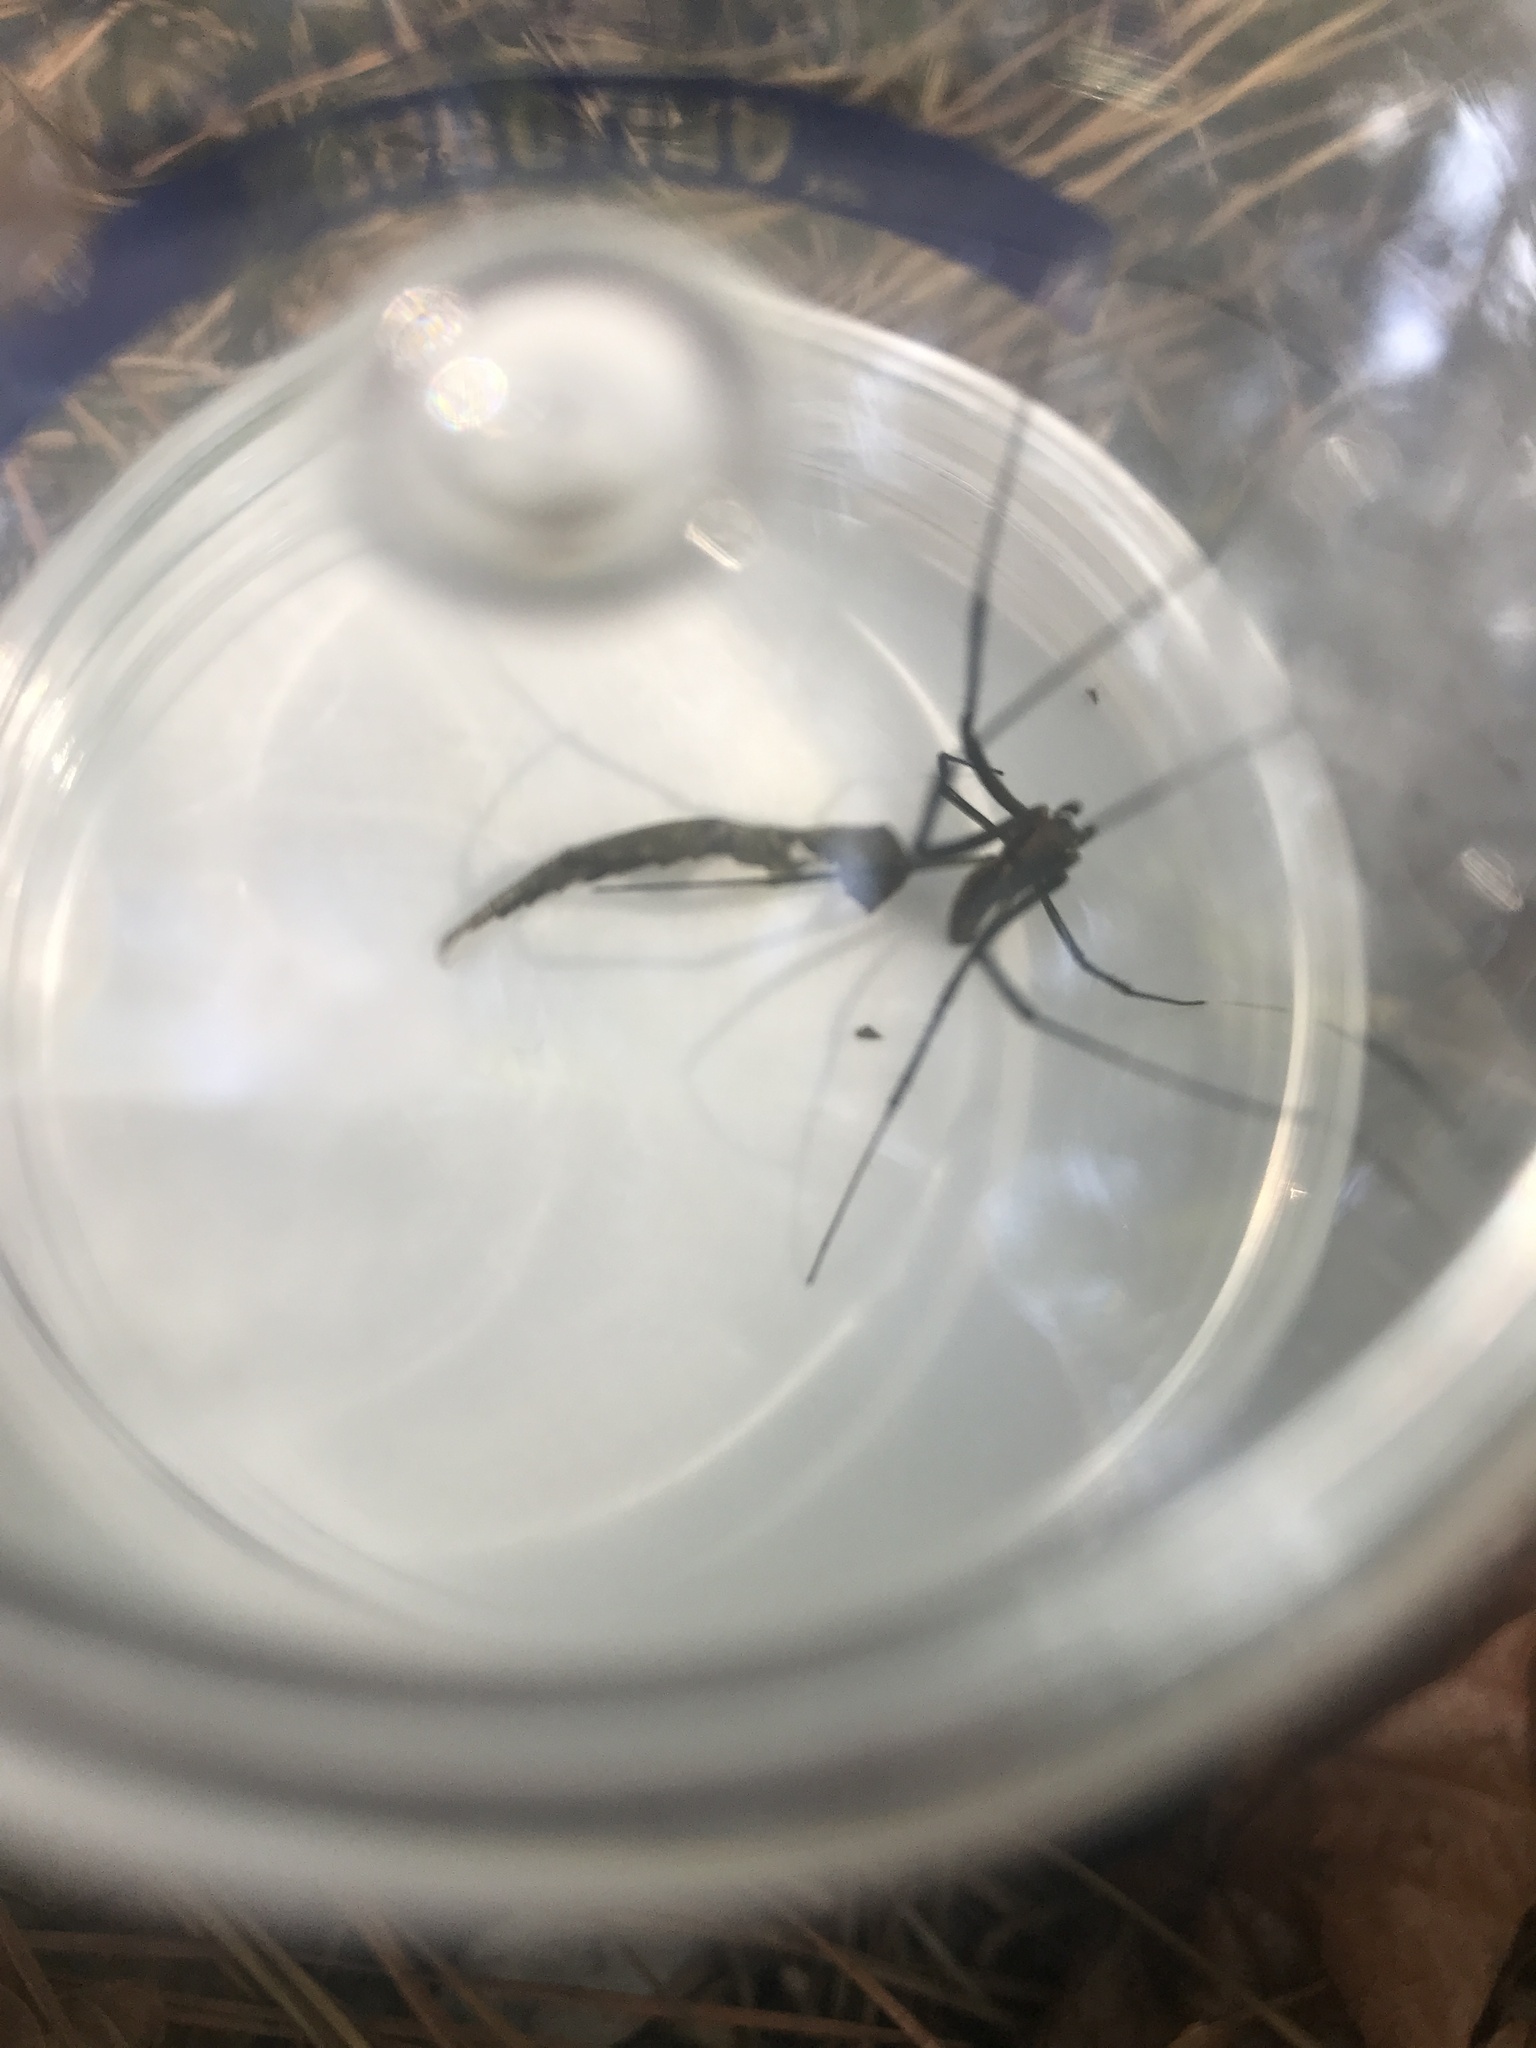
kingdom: Animalia
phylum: Arthropoda
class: Arachnida
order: Araneae
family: Araneidae
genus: Trichonephila
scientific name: Trichonephila clavata
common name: Jorō spider
